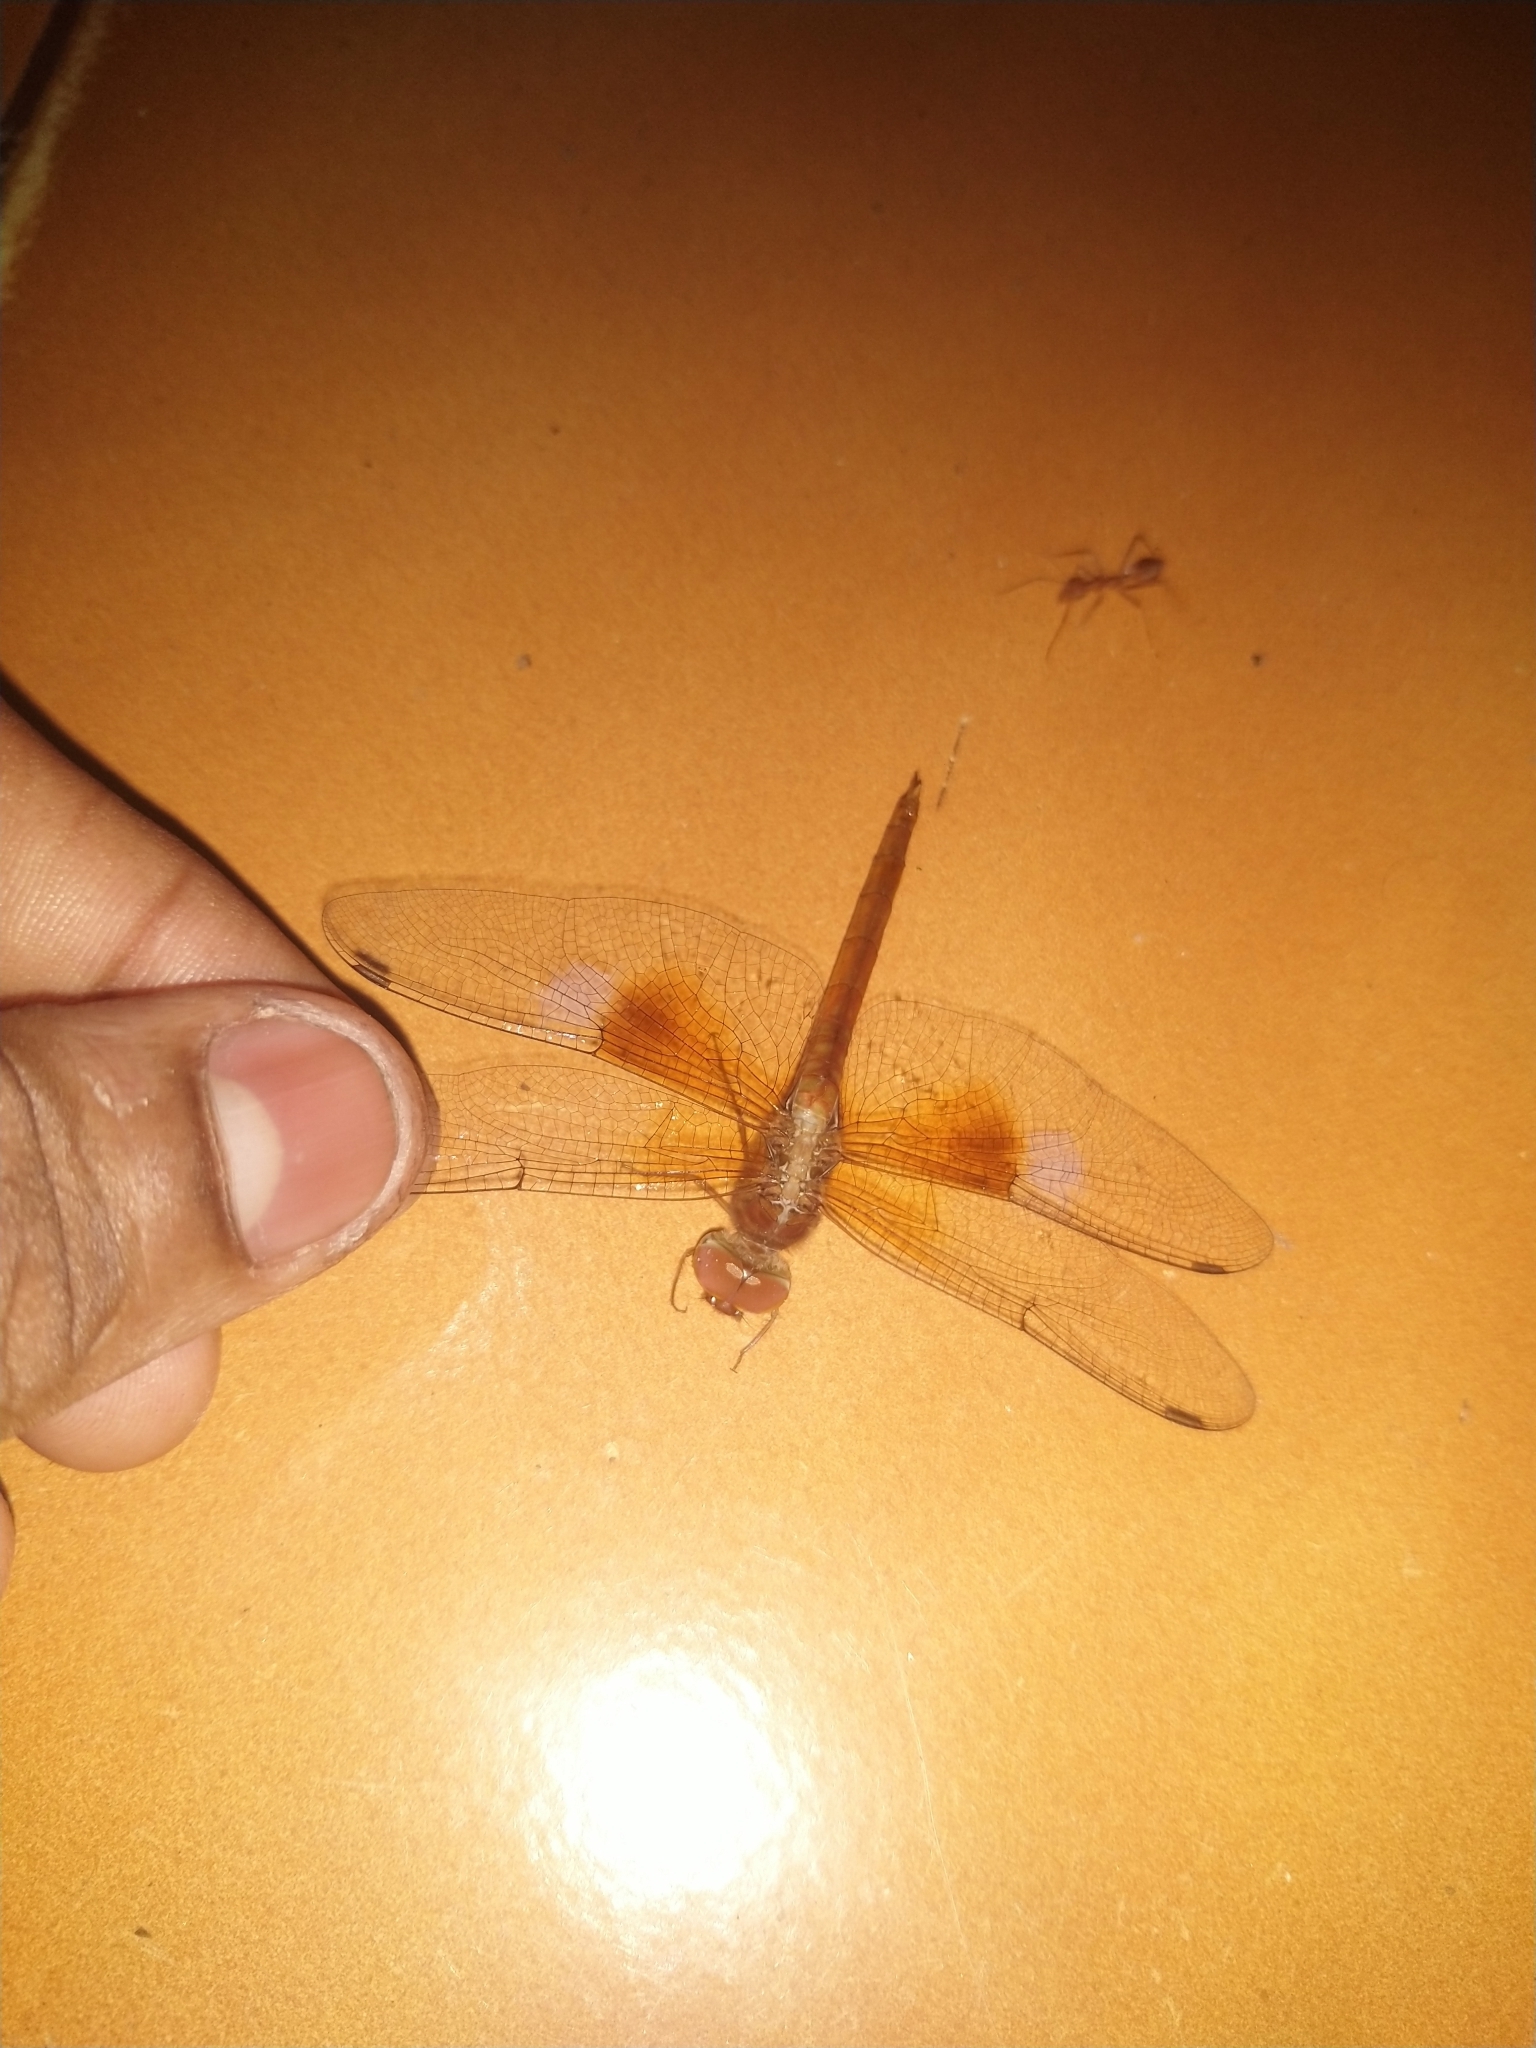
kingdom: Animalia
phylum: Arthropoda
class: Insecta
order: Odonata
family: Libellulidae
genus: Tholymis
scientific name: Tholymis tillarga
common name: Coral-tailed cloud wing
